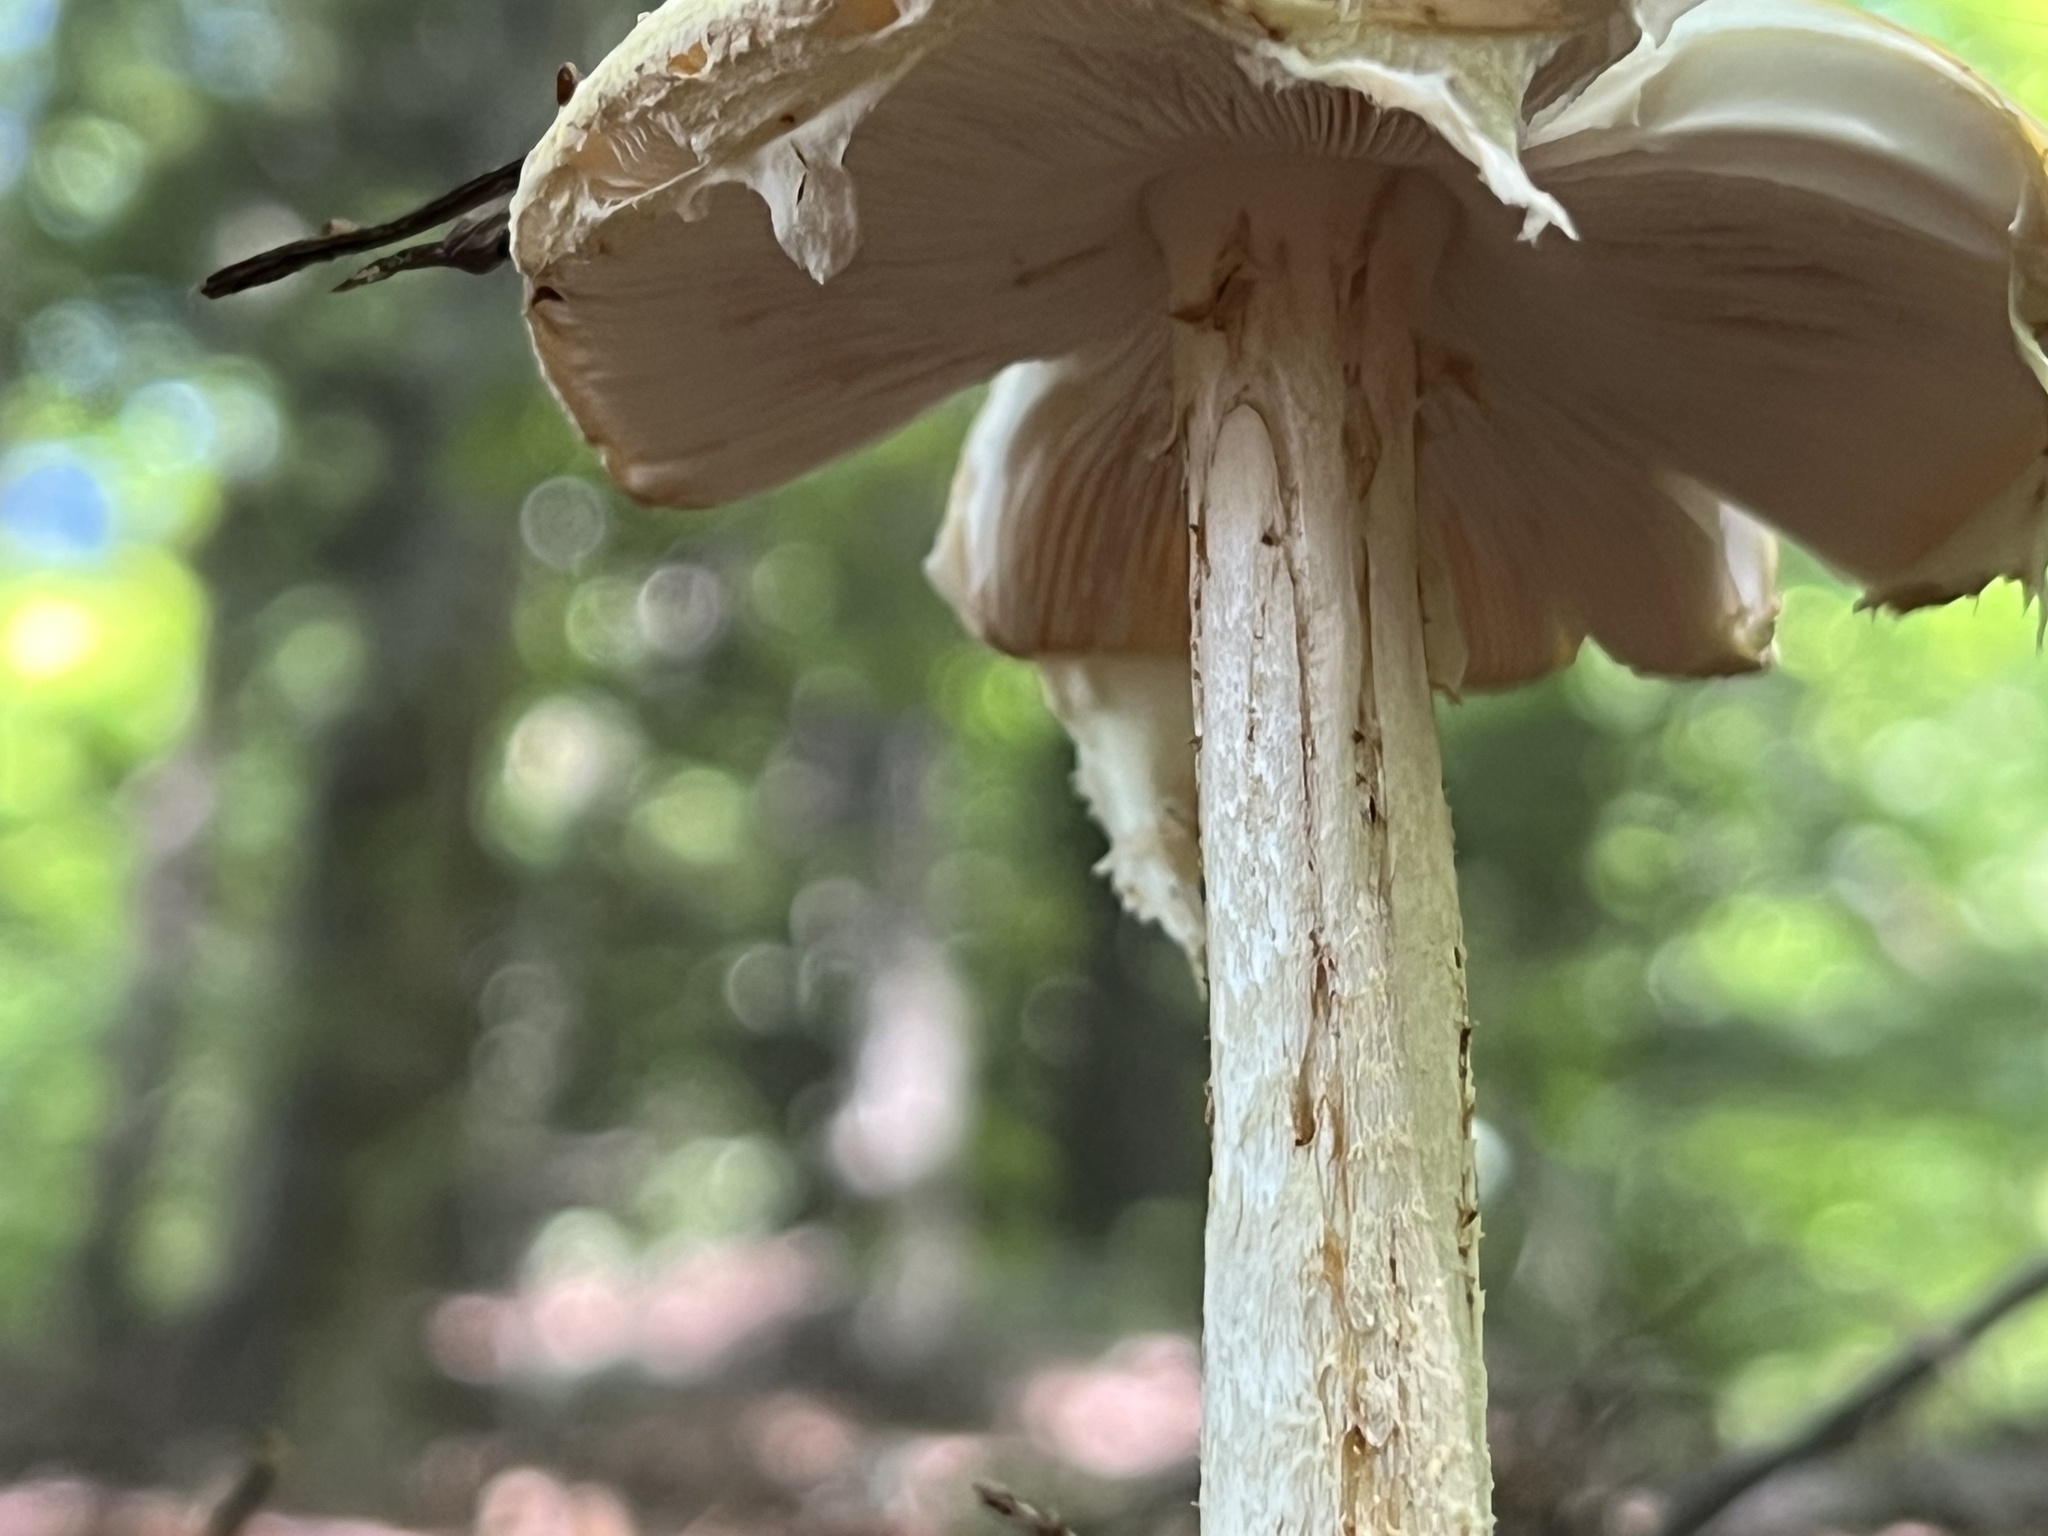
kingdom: Fungi
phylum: Basidiomycota
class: Agaricomycetes
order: Agaricales
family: Amanitaceae
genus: Amanita
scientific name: Amanita muscaria
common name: Fly agaric
